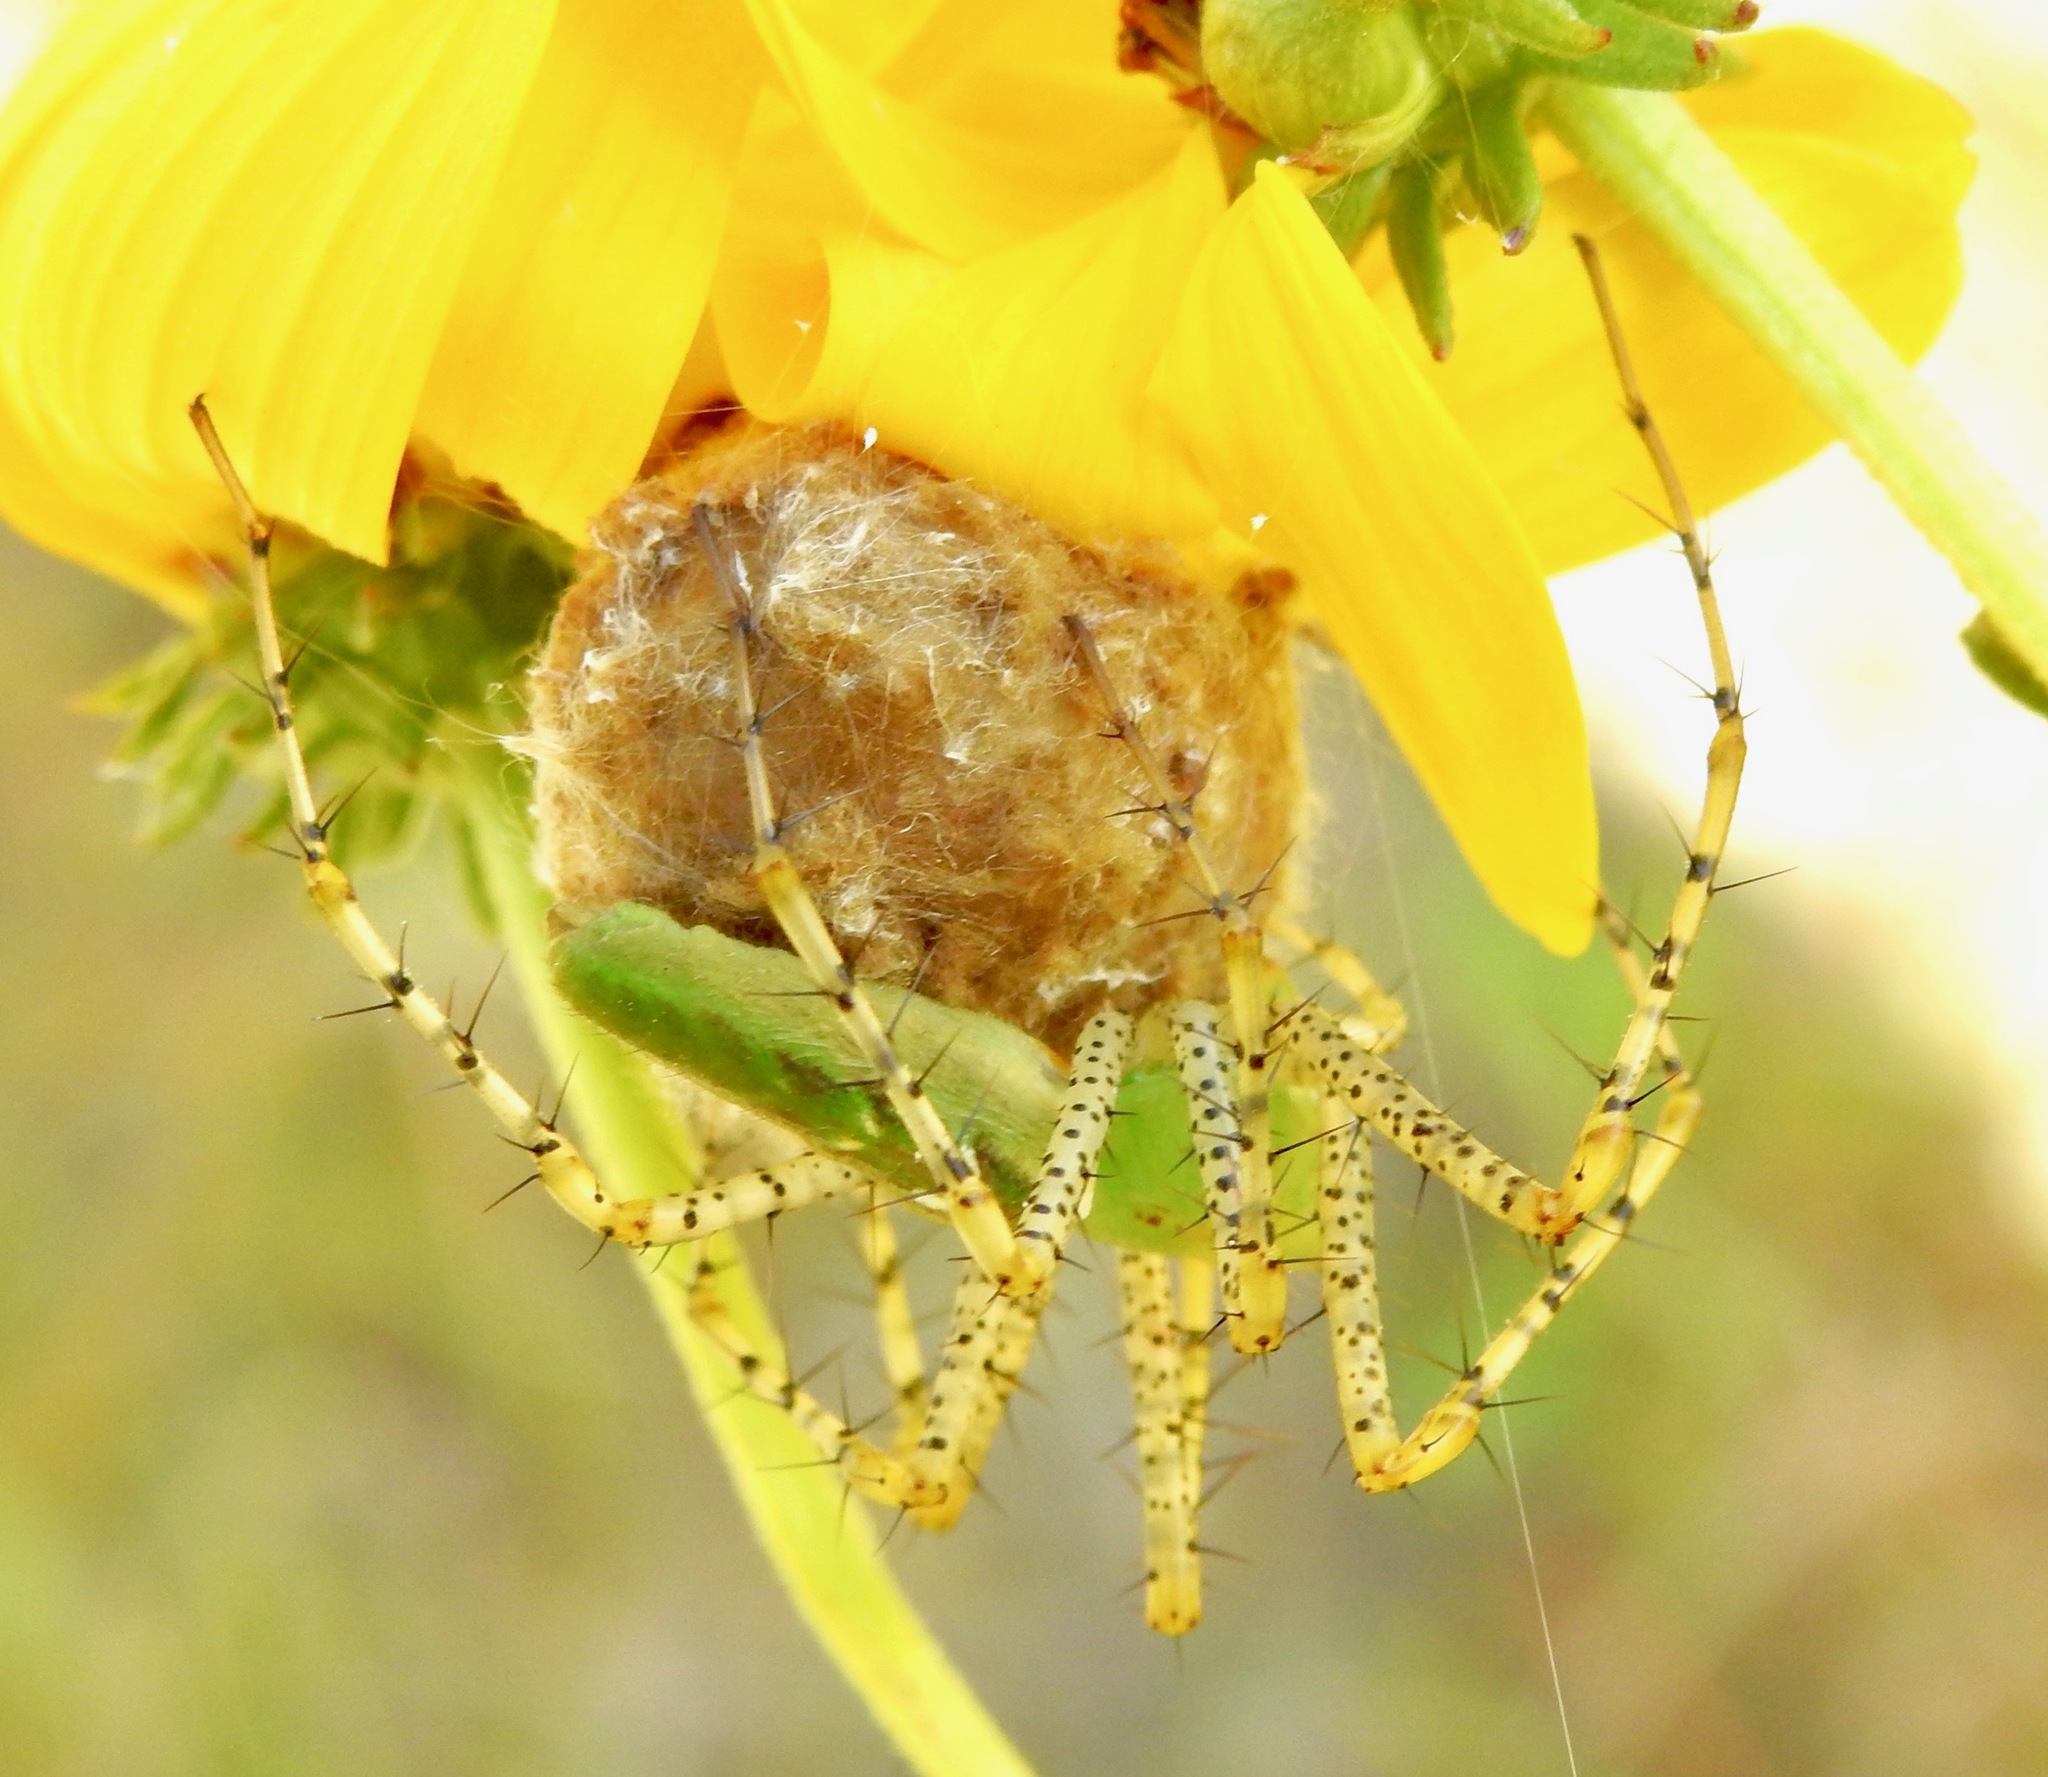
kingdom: Animalia
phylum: Arthropoda
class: Arachnida
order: Araneae
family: Oxyopidae
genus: Peucetia
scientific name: Peucetia viridans
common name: Lynx spiders
